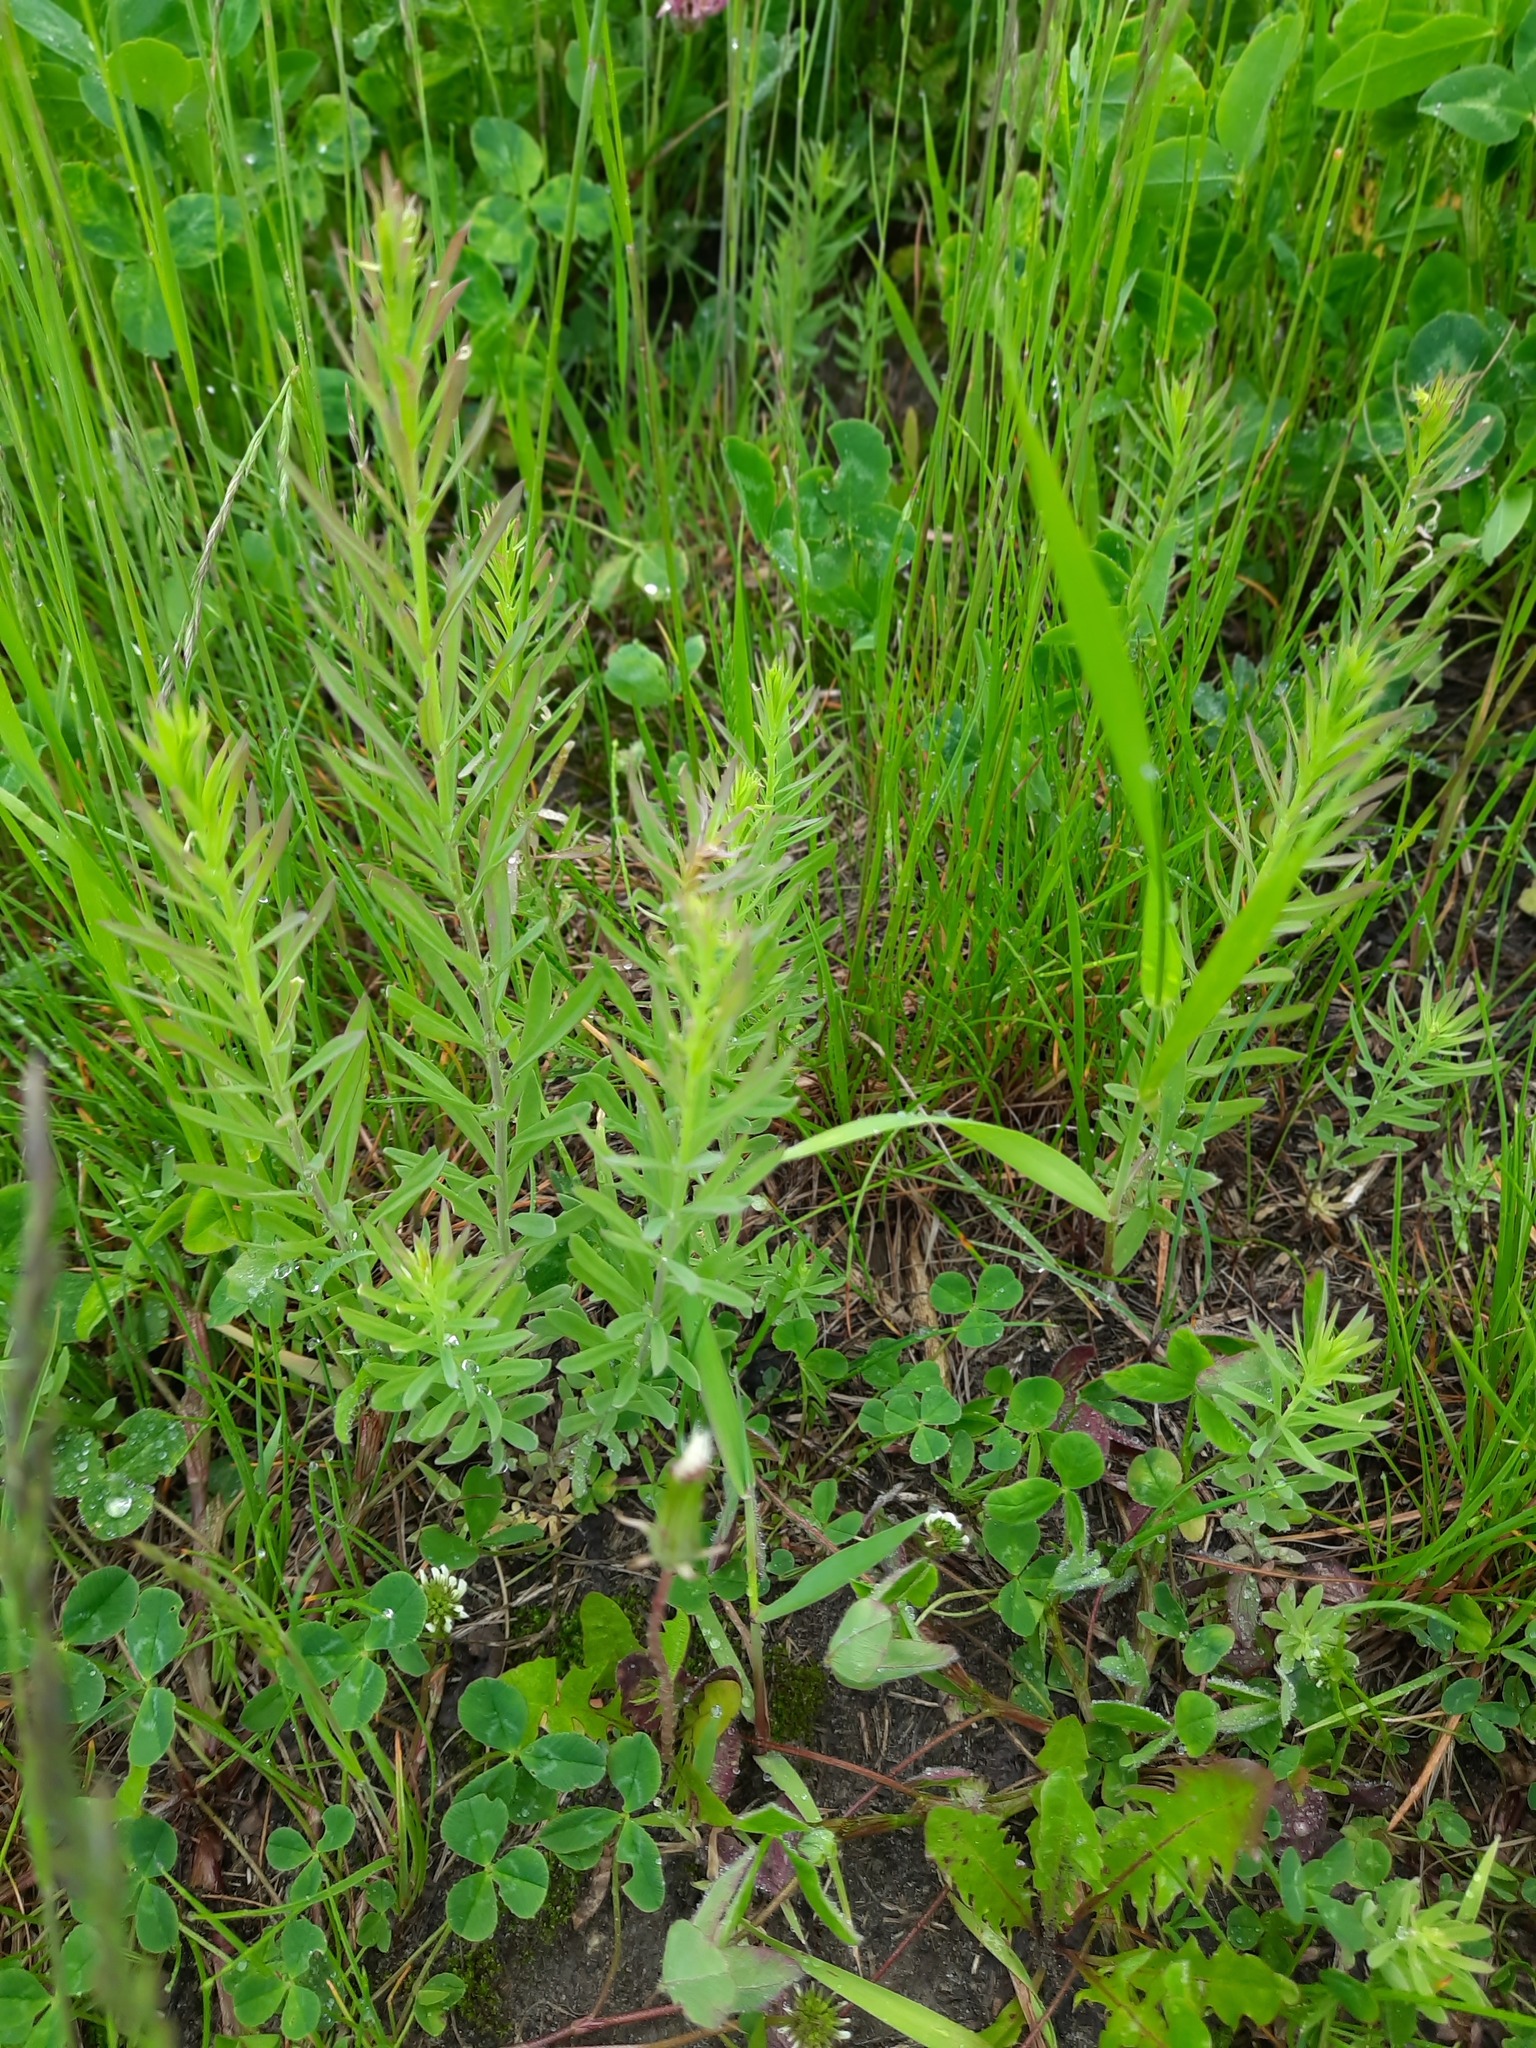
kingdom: Plantae
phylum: Tracheophyta
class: Magnoliopsida
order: Lamiales
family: Plantaginaceae
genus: Linaria
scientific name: Linaria vulgaris
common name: Butter and eggs
